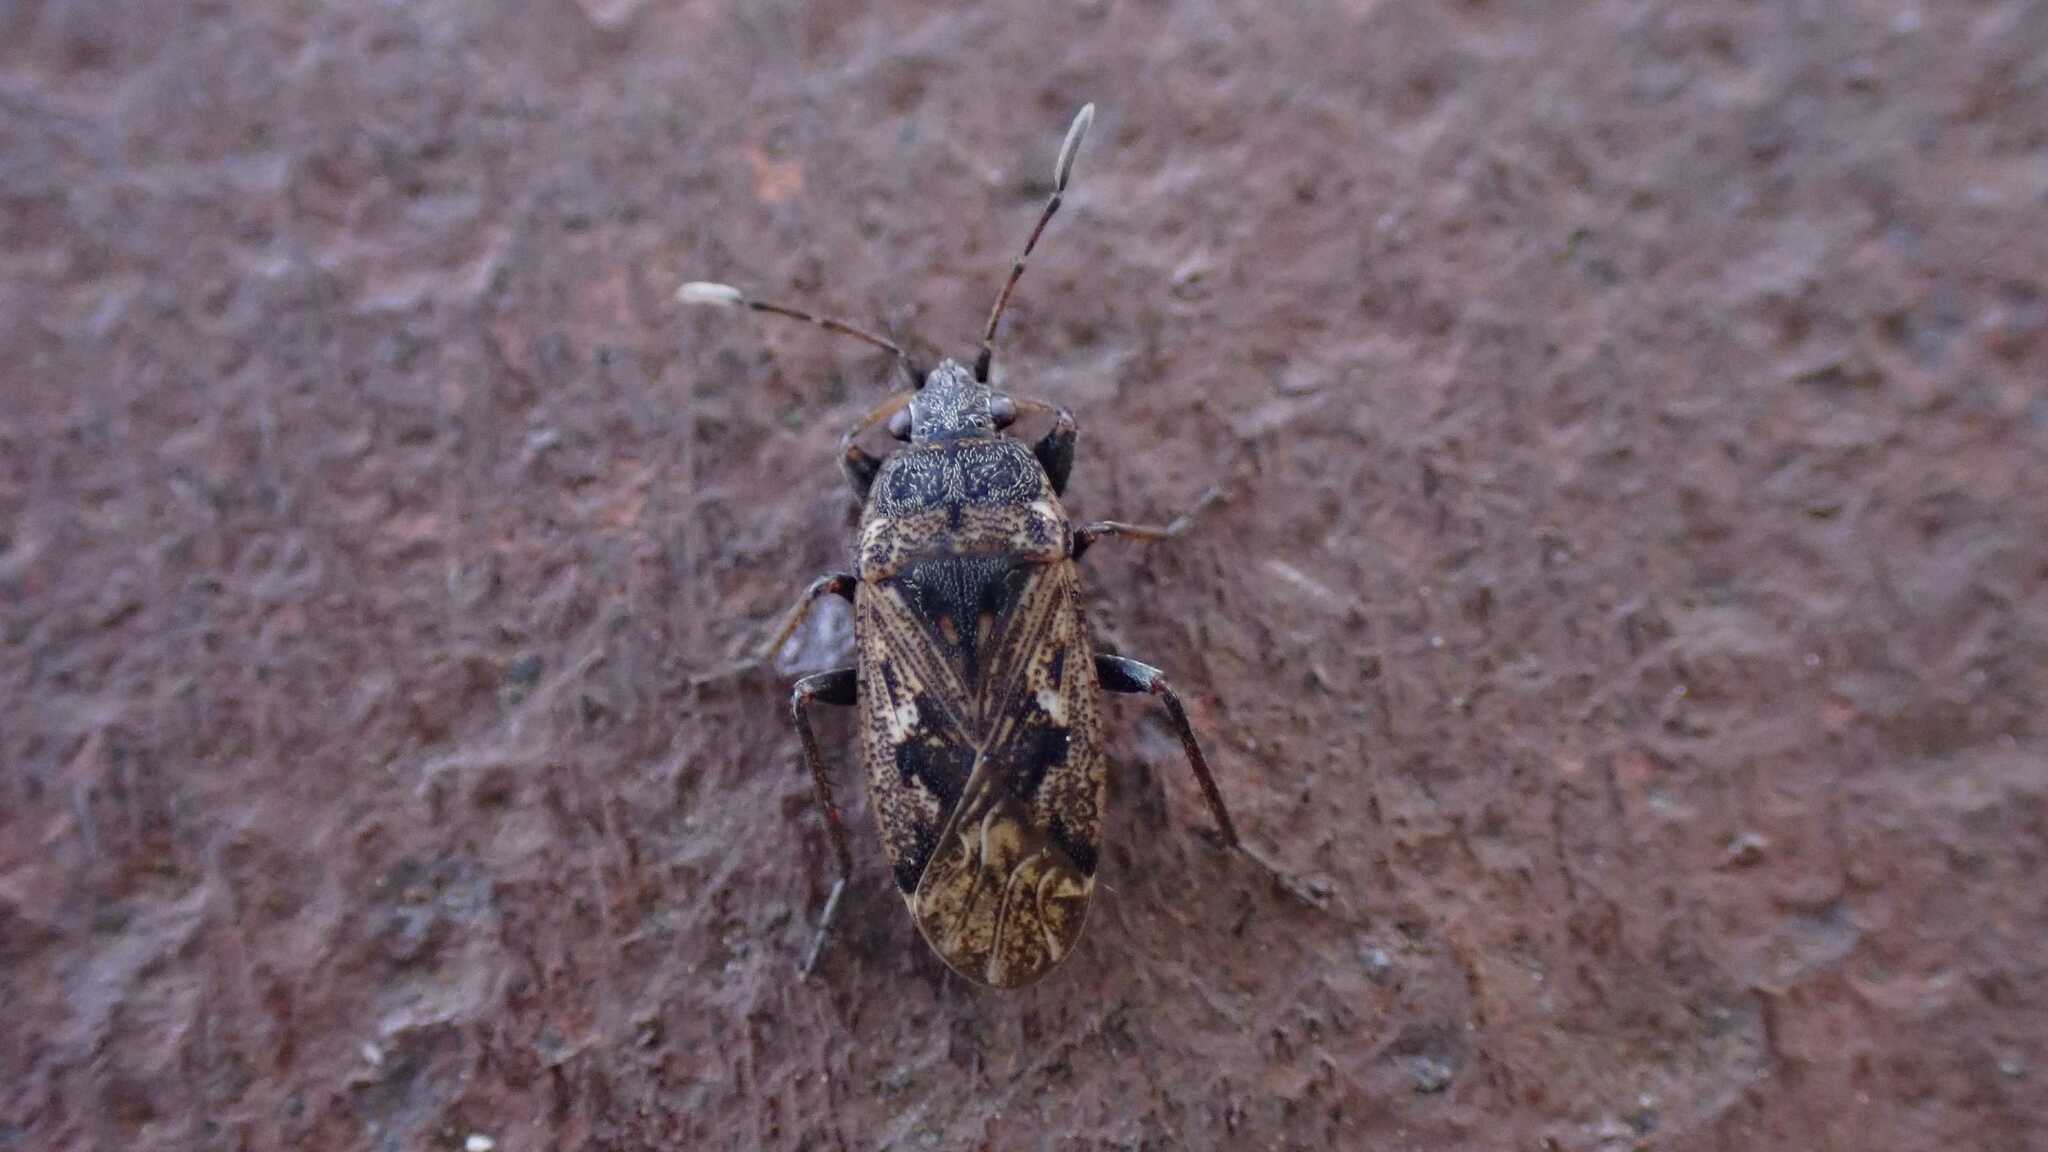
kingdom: Animalia
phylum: Arthropoda
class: Insecta
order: Hemiptera
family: Rhyparochromidae
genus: Sphragisticus
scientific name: Sphragisticus nebulosus
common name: Dirt-colored seed bug
